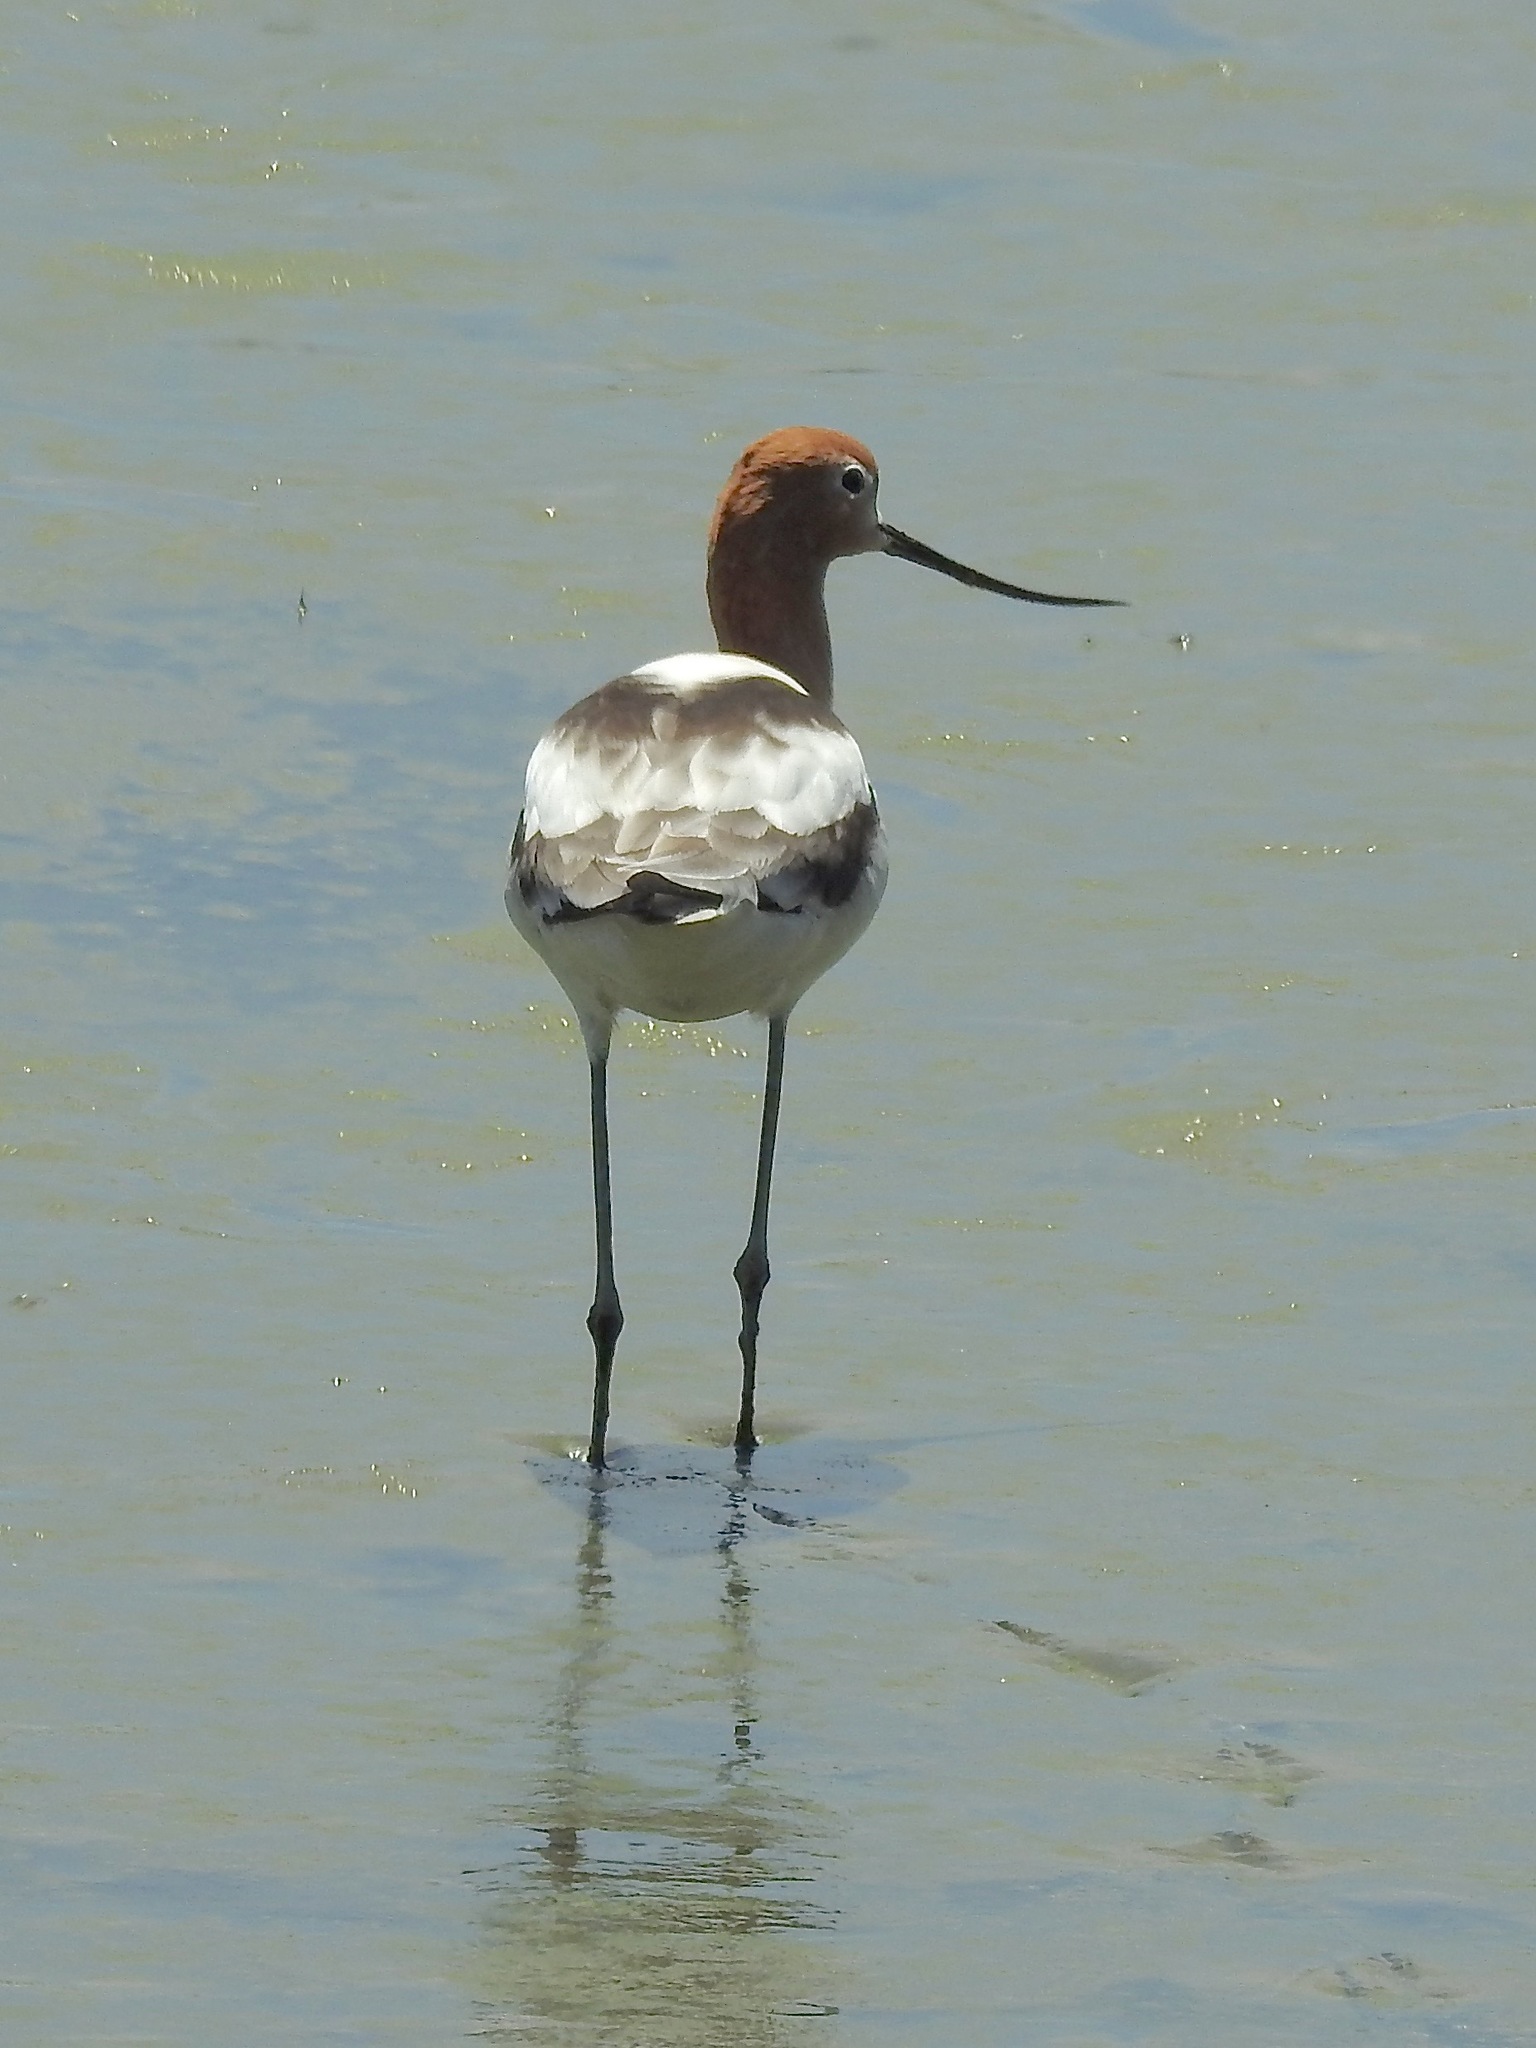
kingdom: Animalia
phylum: Chordata
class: Aves
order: Charadriiformes
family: Recurvirostridae
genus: Recurvirostra
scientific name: Recurvirostra americana
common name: American avocet
